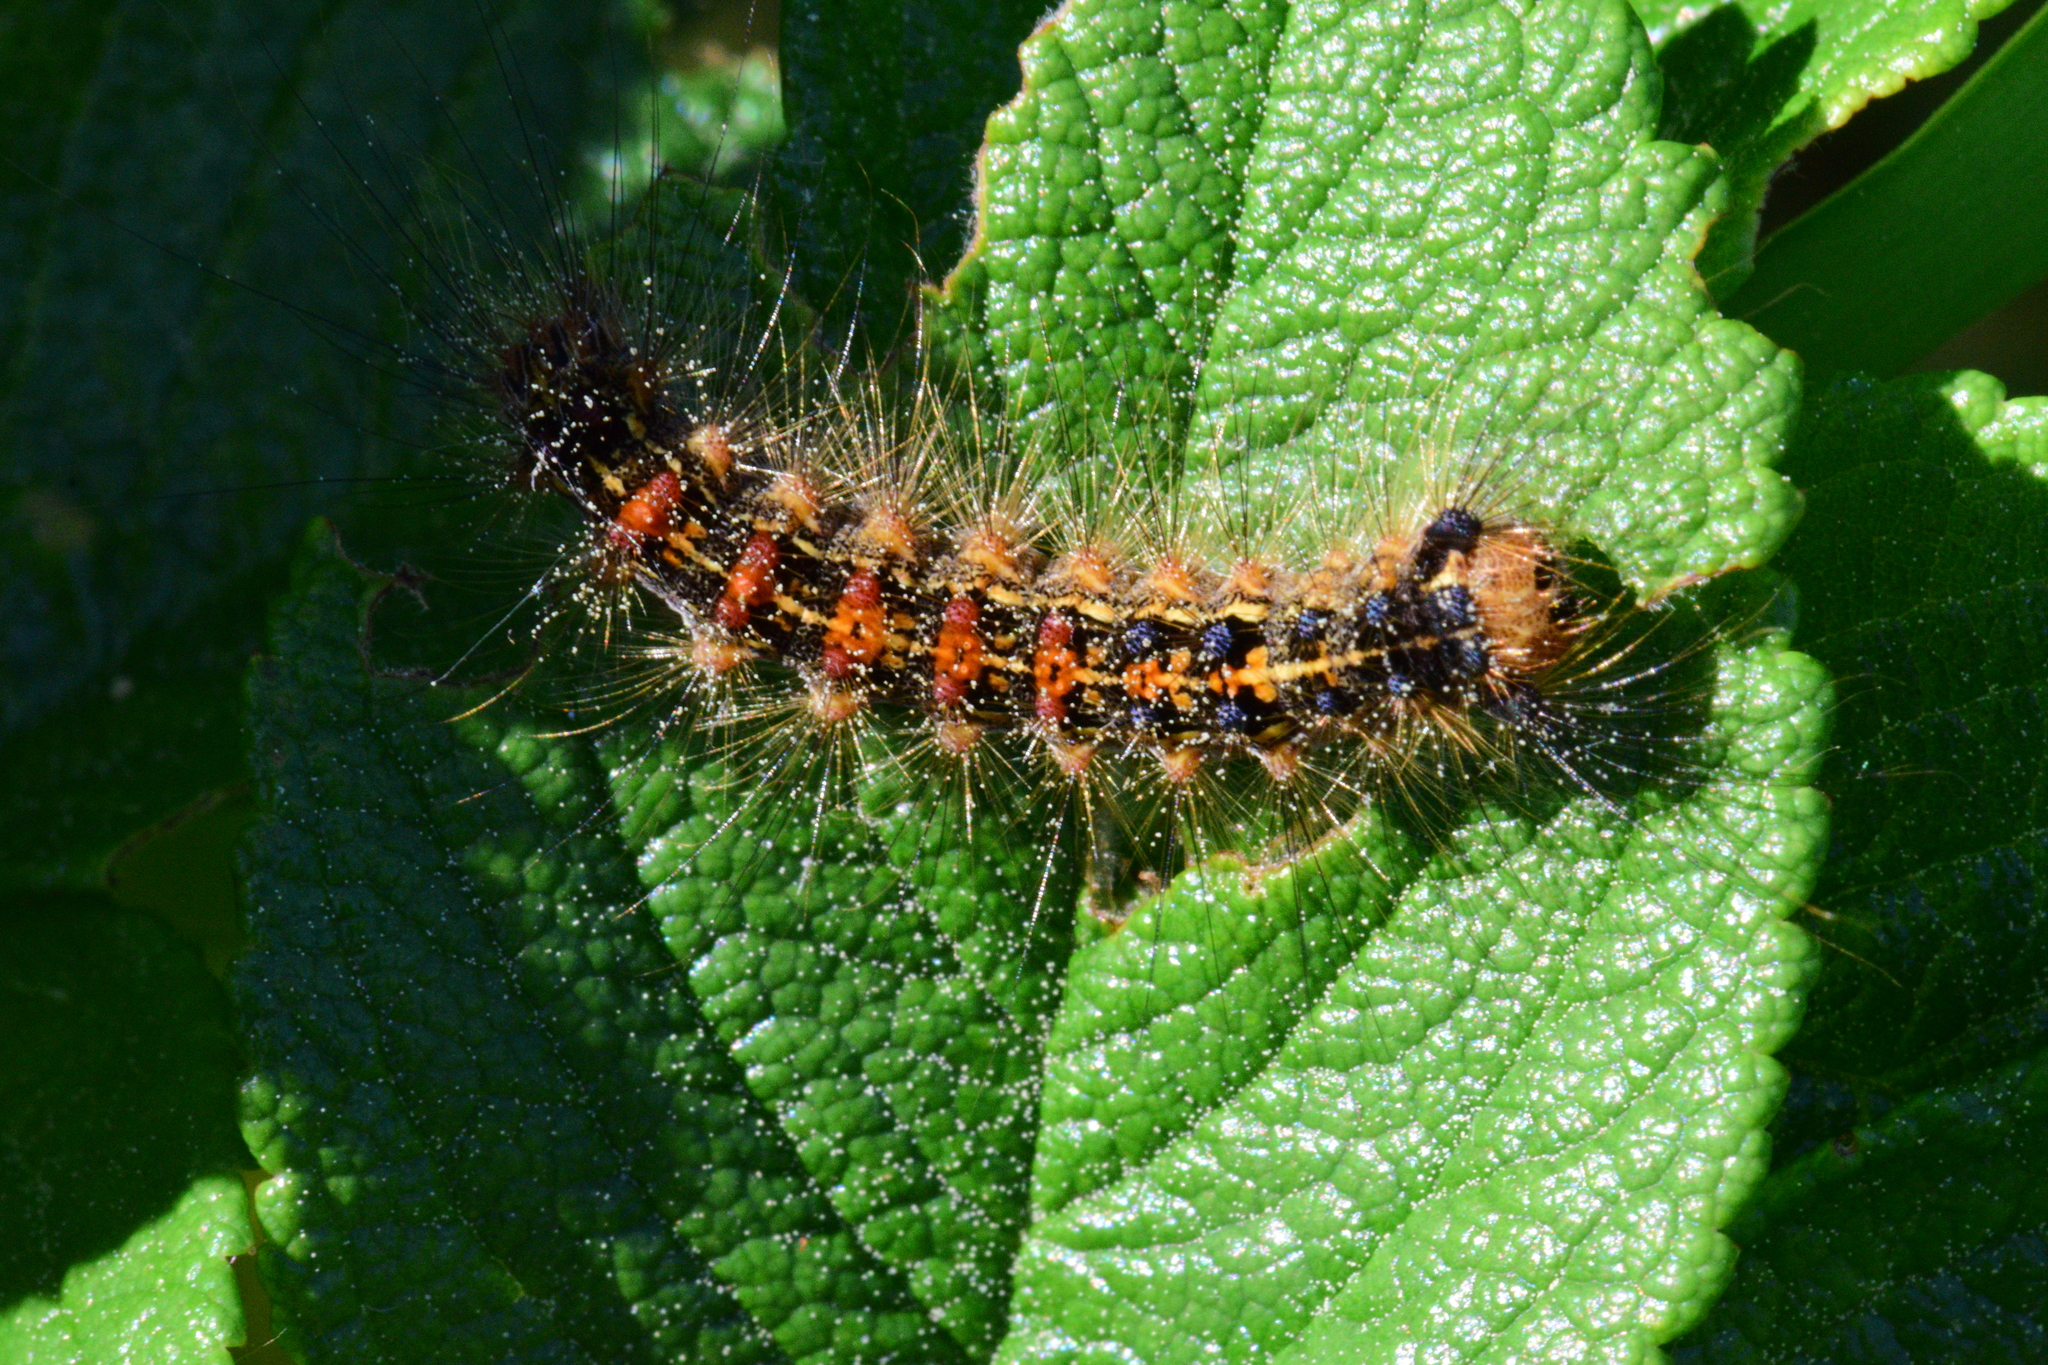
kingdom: Animalia
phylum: Arthropoda
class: Insecta
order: Lepidoptera
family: Erebidae
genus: Lymantria
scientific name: Lymantria dispar
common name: Gypsy moth
